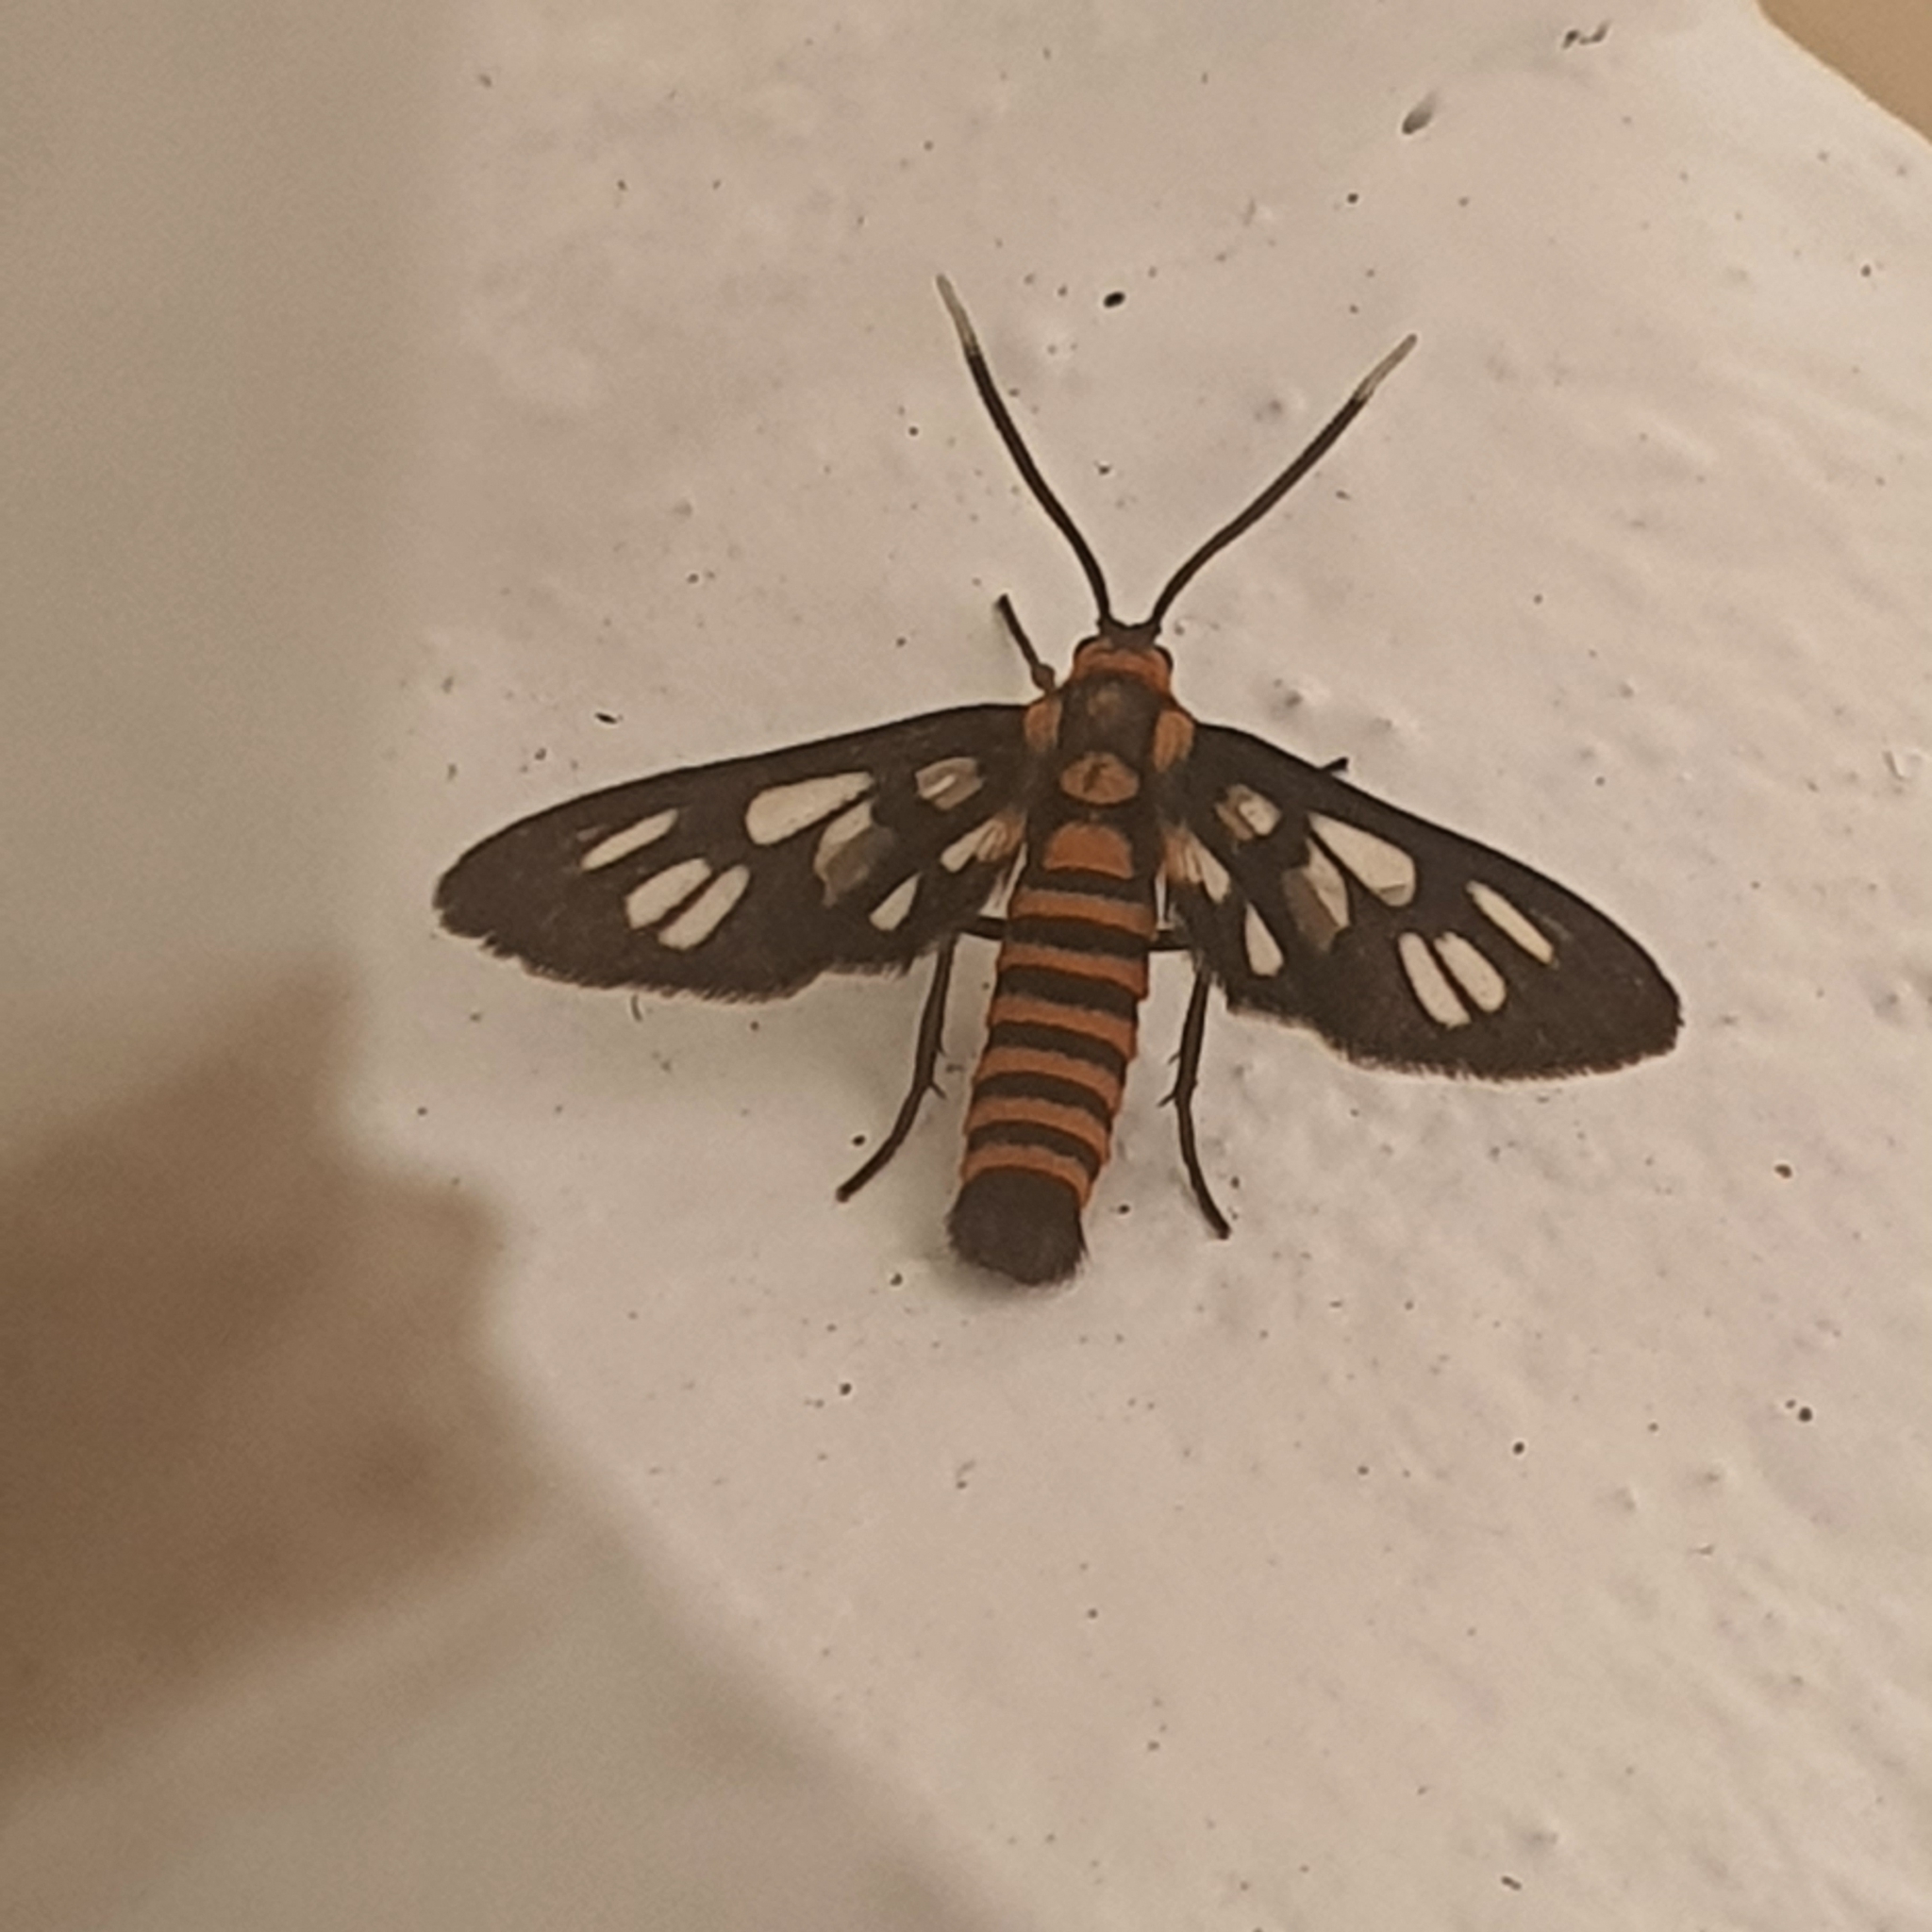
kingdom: Animalia
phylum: Arthropoda
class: Insecta
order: Lepidoptera
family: Erebidae
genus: Amata
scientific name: Amata huebneri
